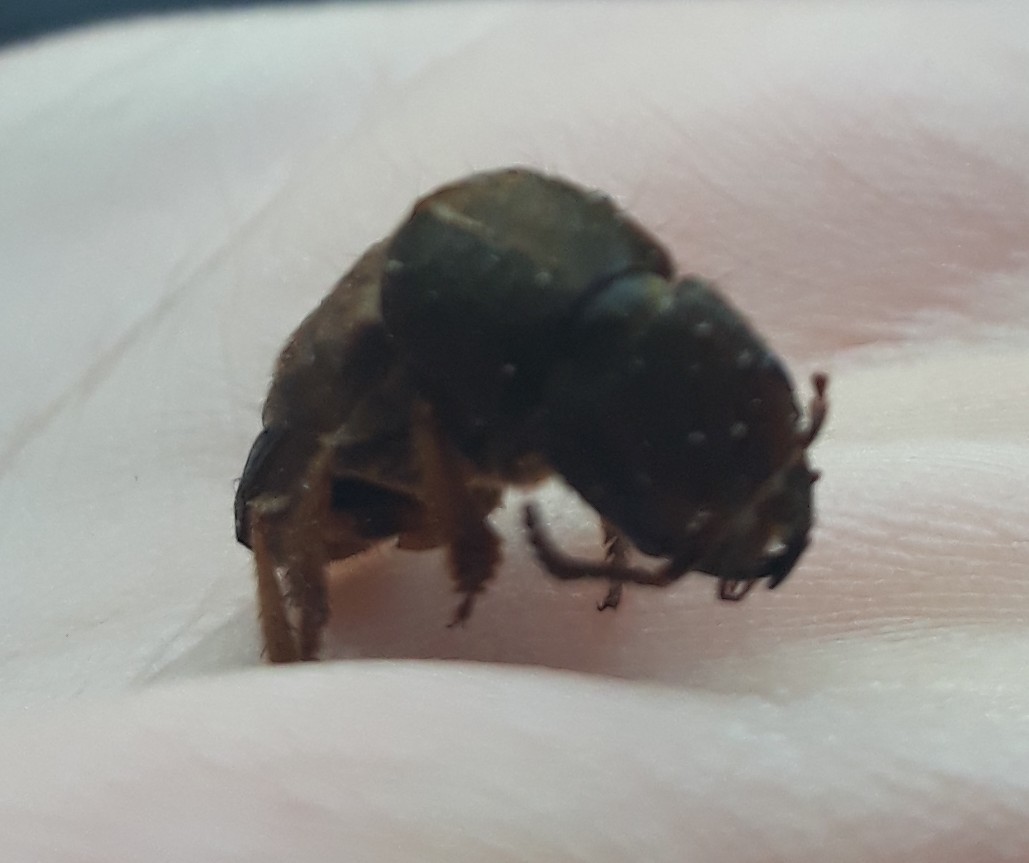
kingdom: Animalia
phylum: Arthropoda
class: Insecta
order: Coleoptera
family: Staphylinidae
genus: Platydracus
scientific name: Platydracus maculosus
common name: Brown rove beetle
